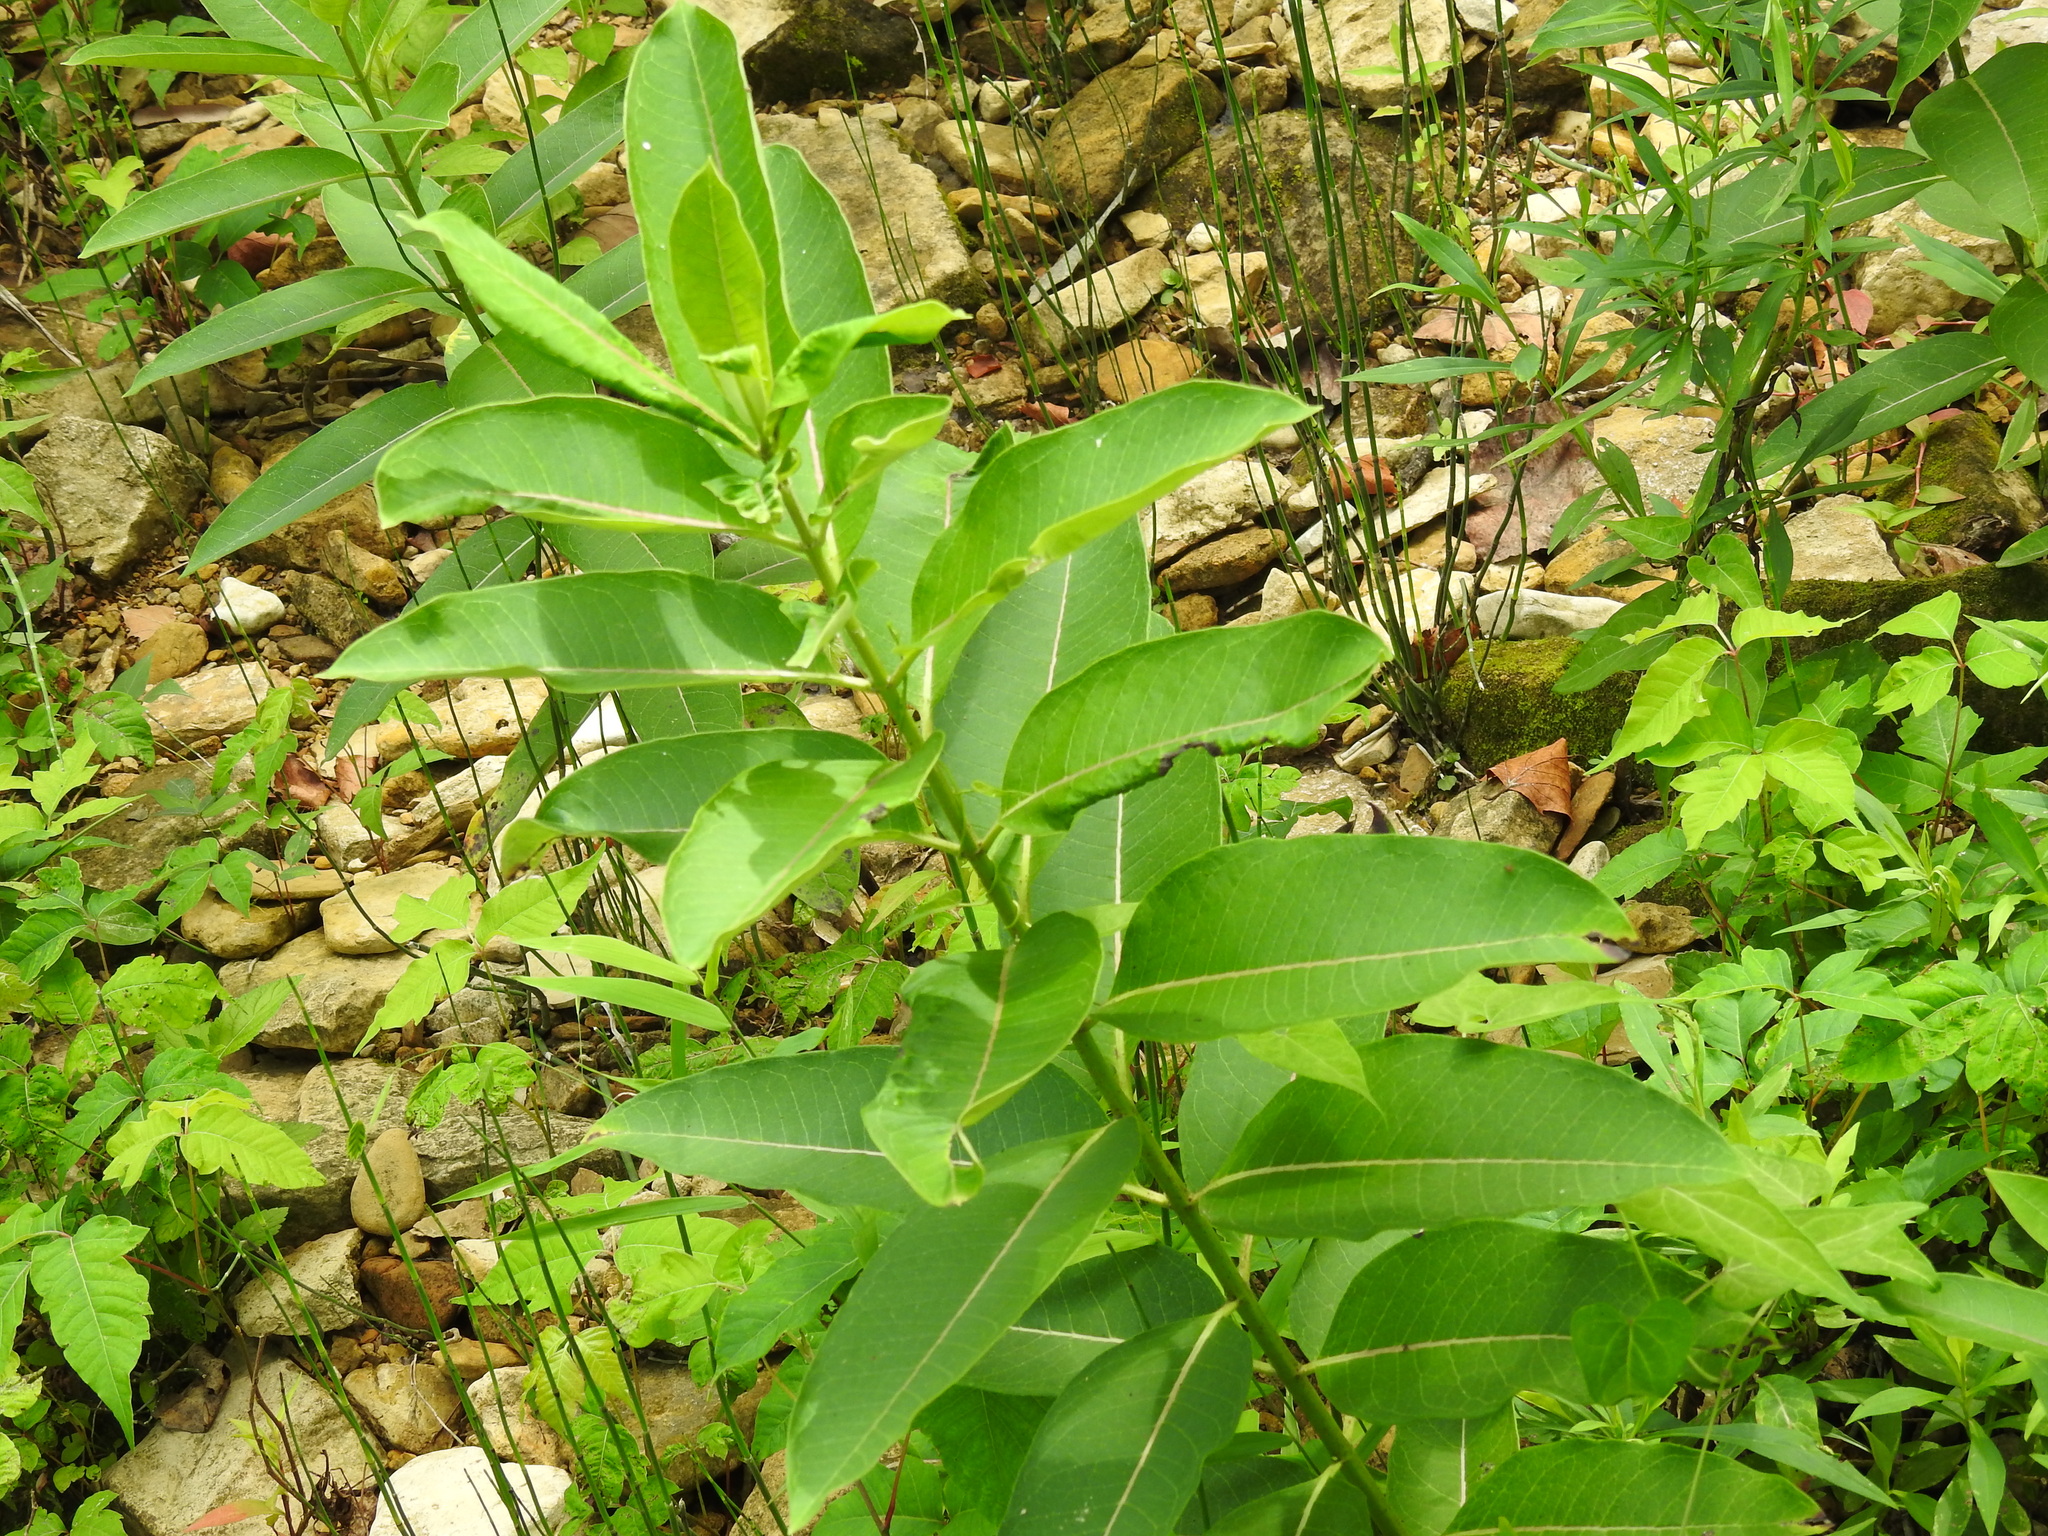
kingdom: Plantae
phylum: Tracheophyta
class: Magnoliopsida
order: Gentianales
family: Apocynaceae
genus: Asclepias
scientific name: Asclepias syriaca
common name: Common milkweed
